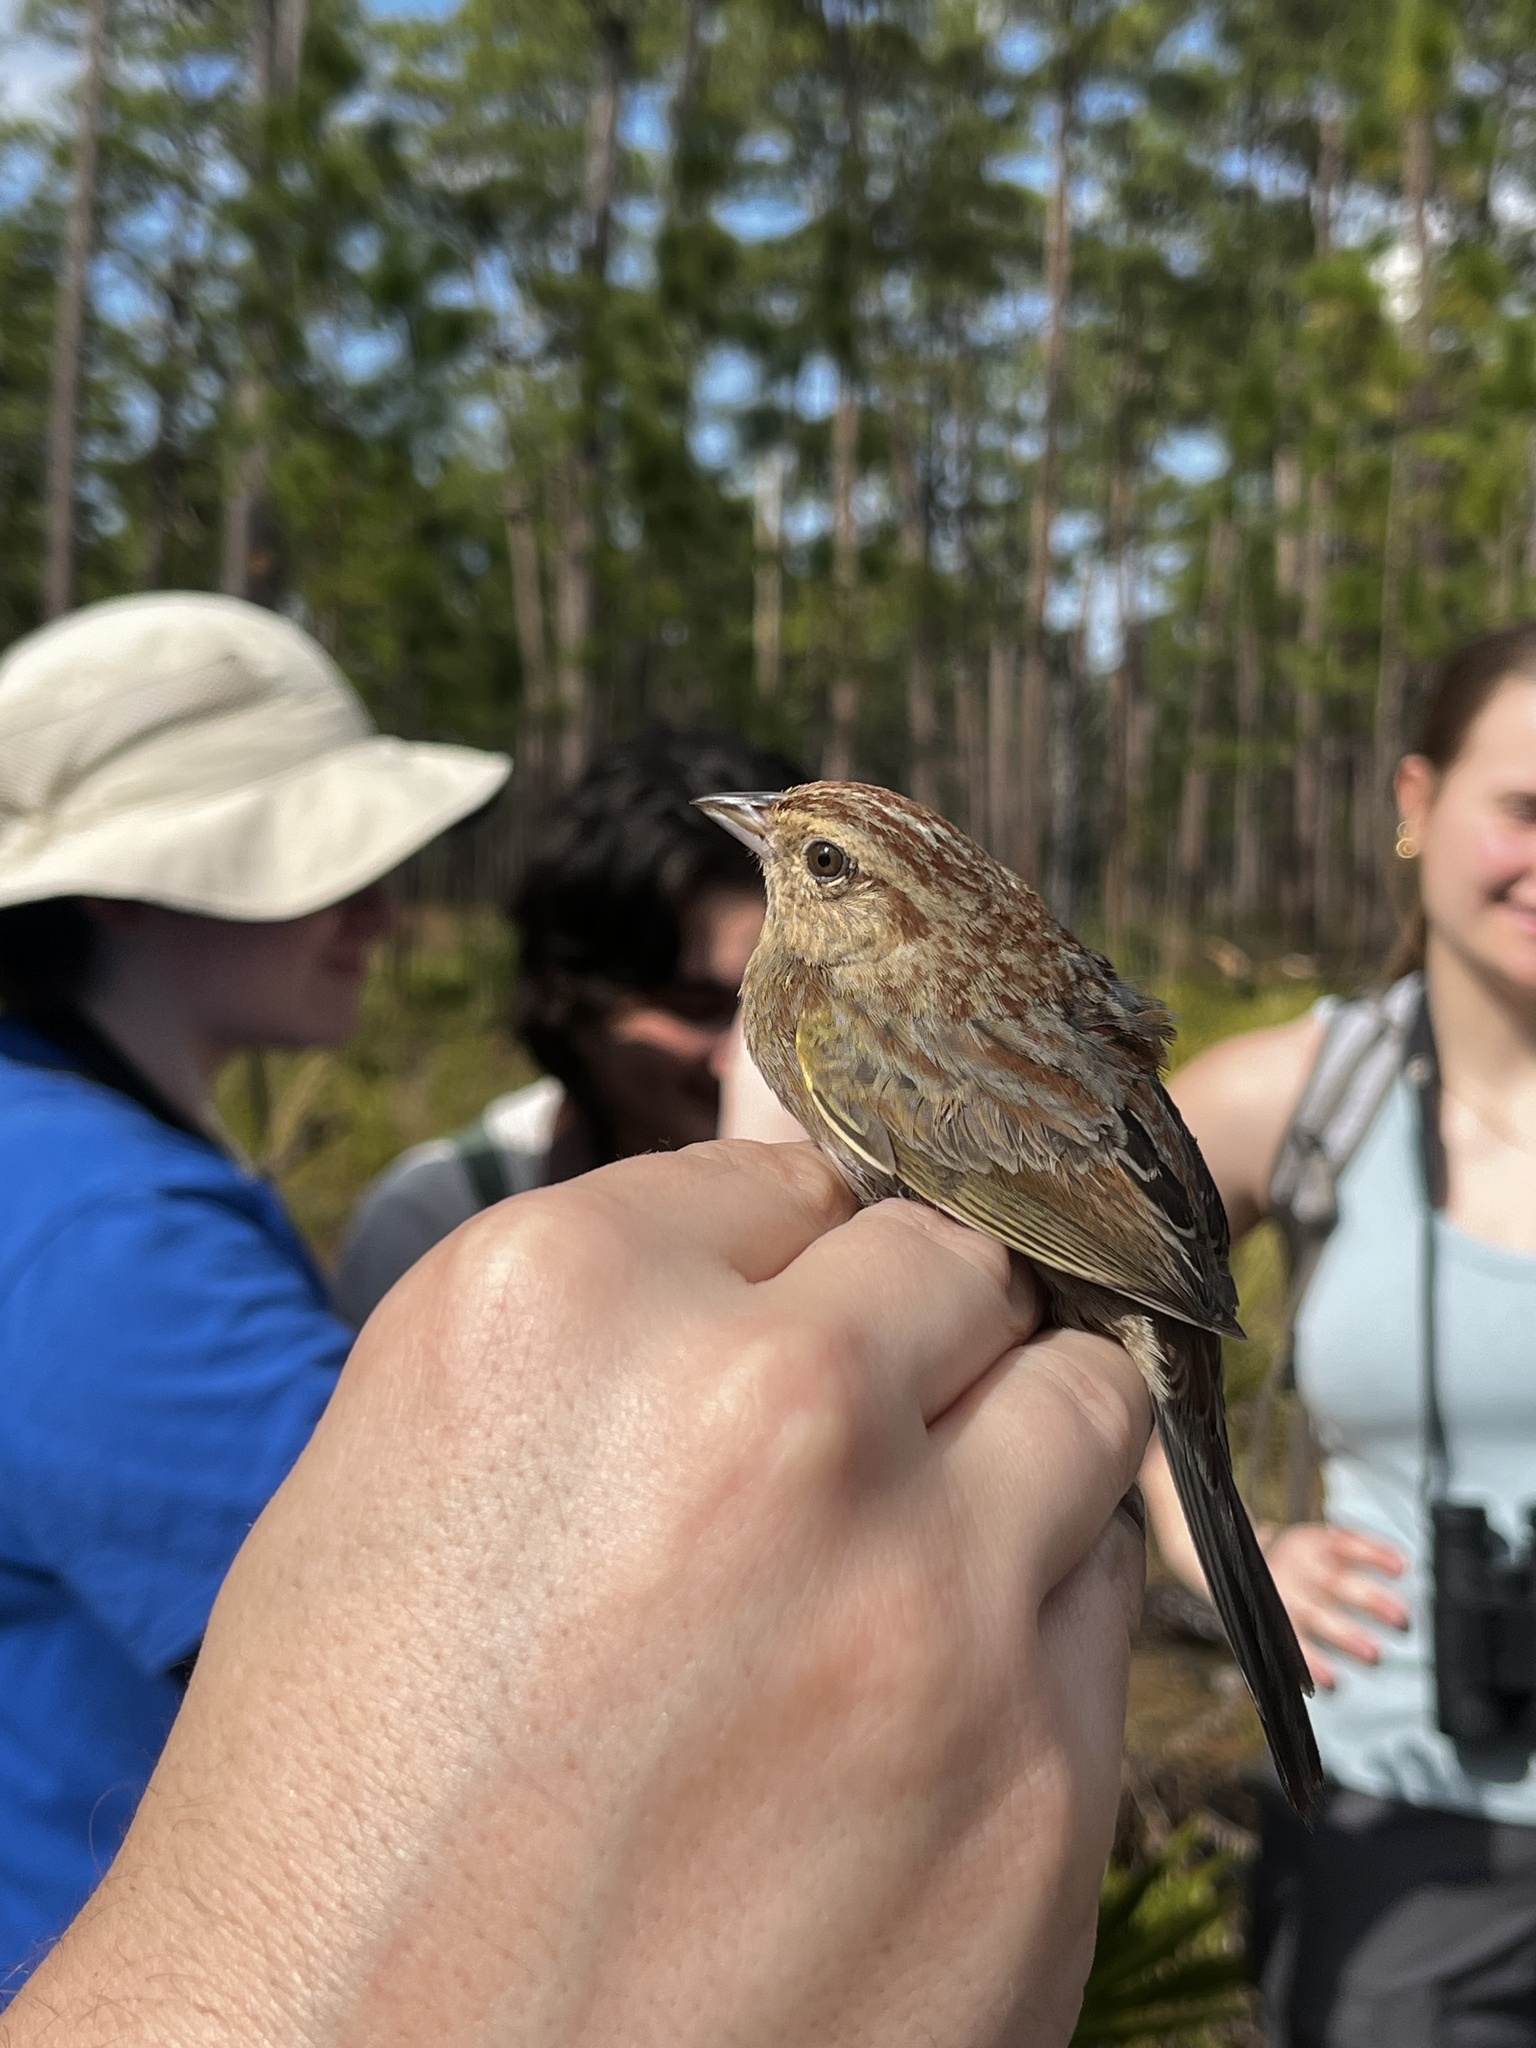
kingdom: Animalia
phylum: Chordata
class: Aves
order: Passeriformes
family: Passerellidae
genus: Peucaea
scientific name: Peucaea aestivalis
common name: Bachman's sparrow
